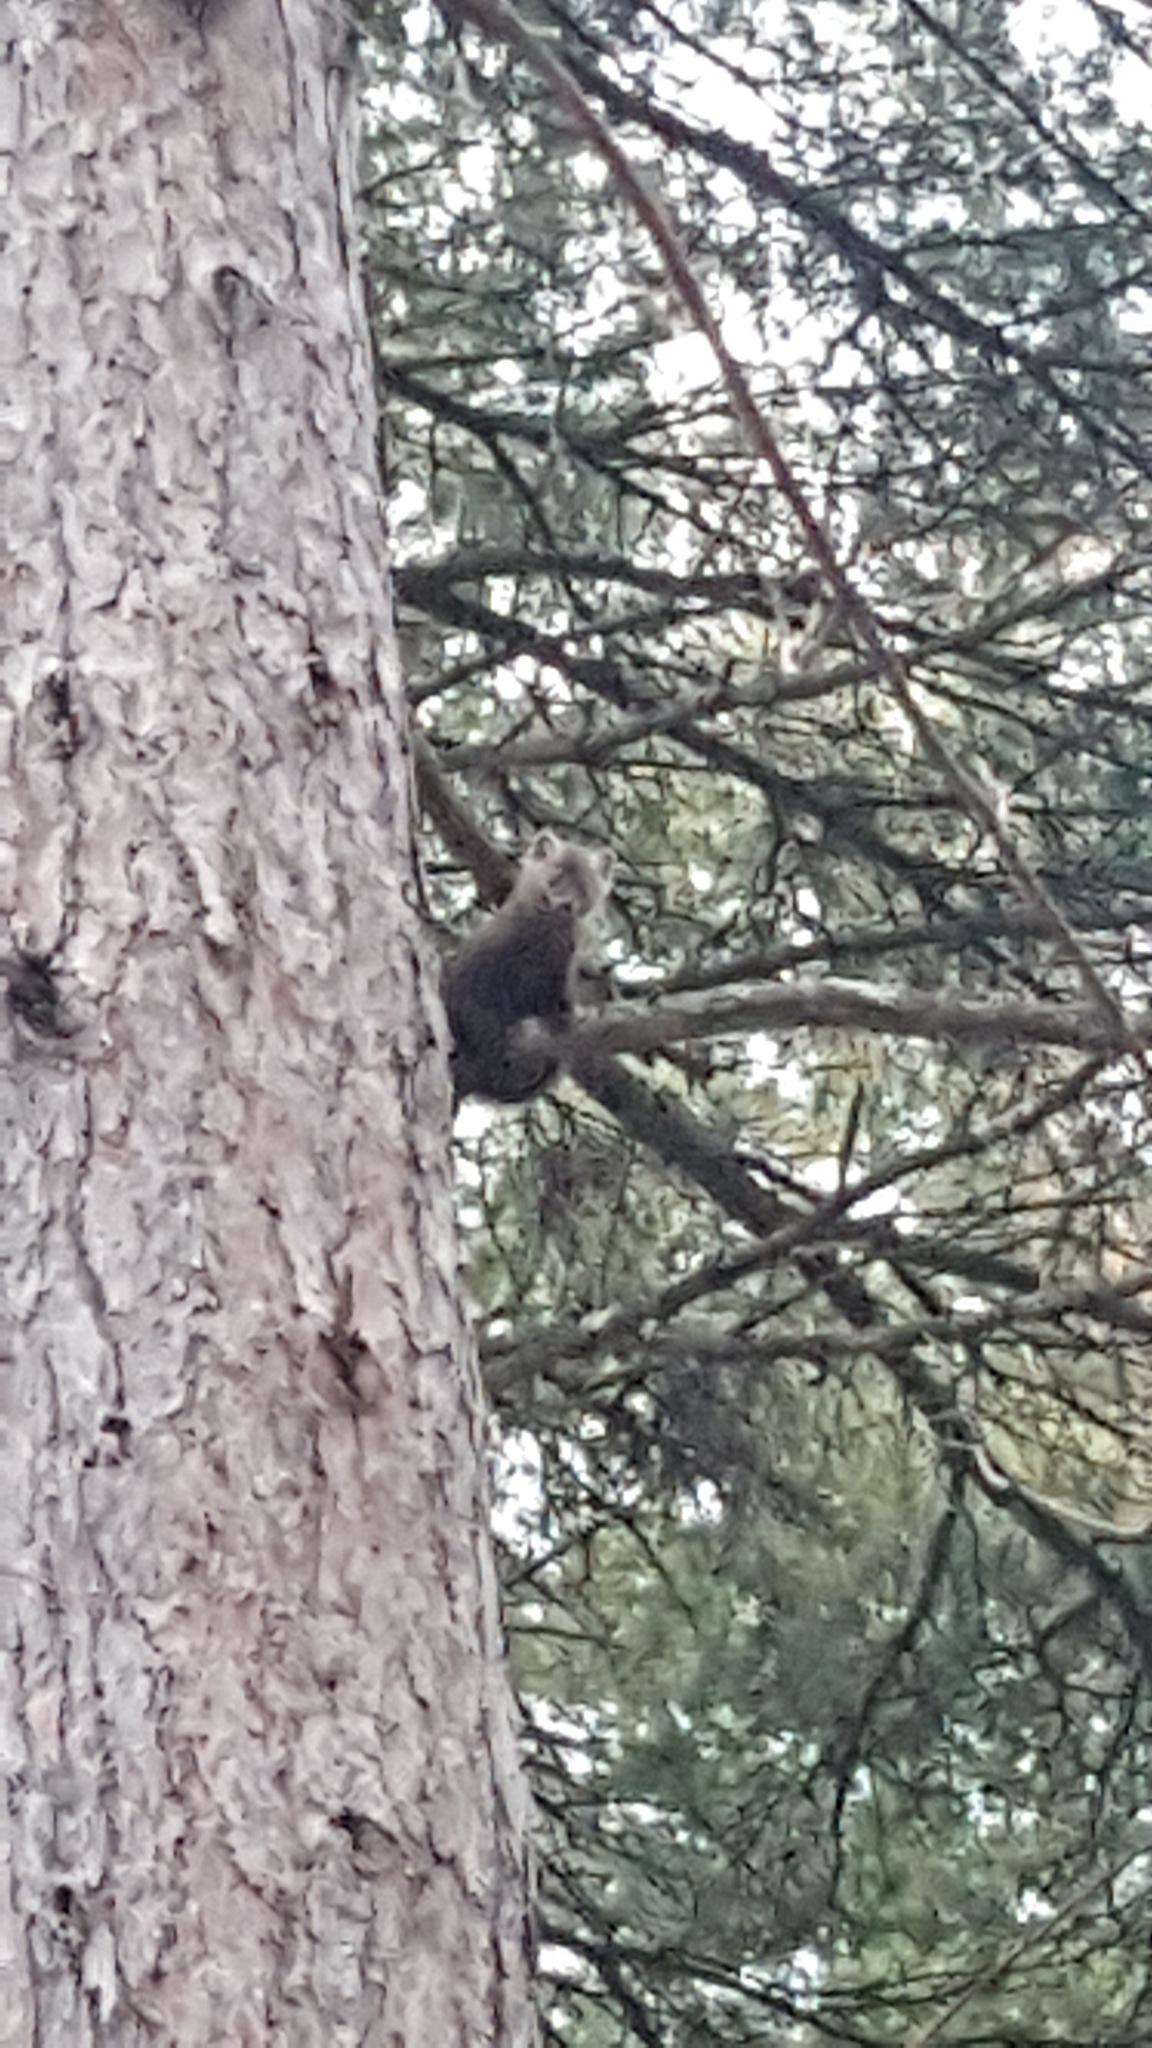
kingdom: Animalia
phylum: Chordata
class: Mammalia
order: Carnivora
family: Mustelidae
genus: Martes
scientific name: Martes americana
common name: American marten
